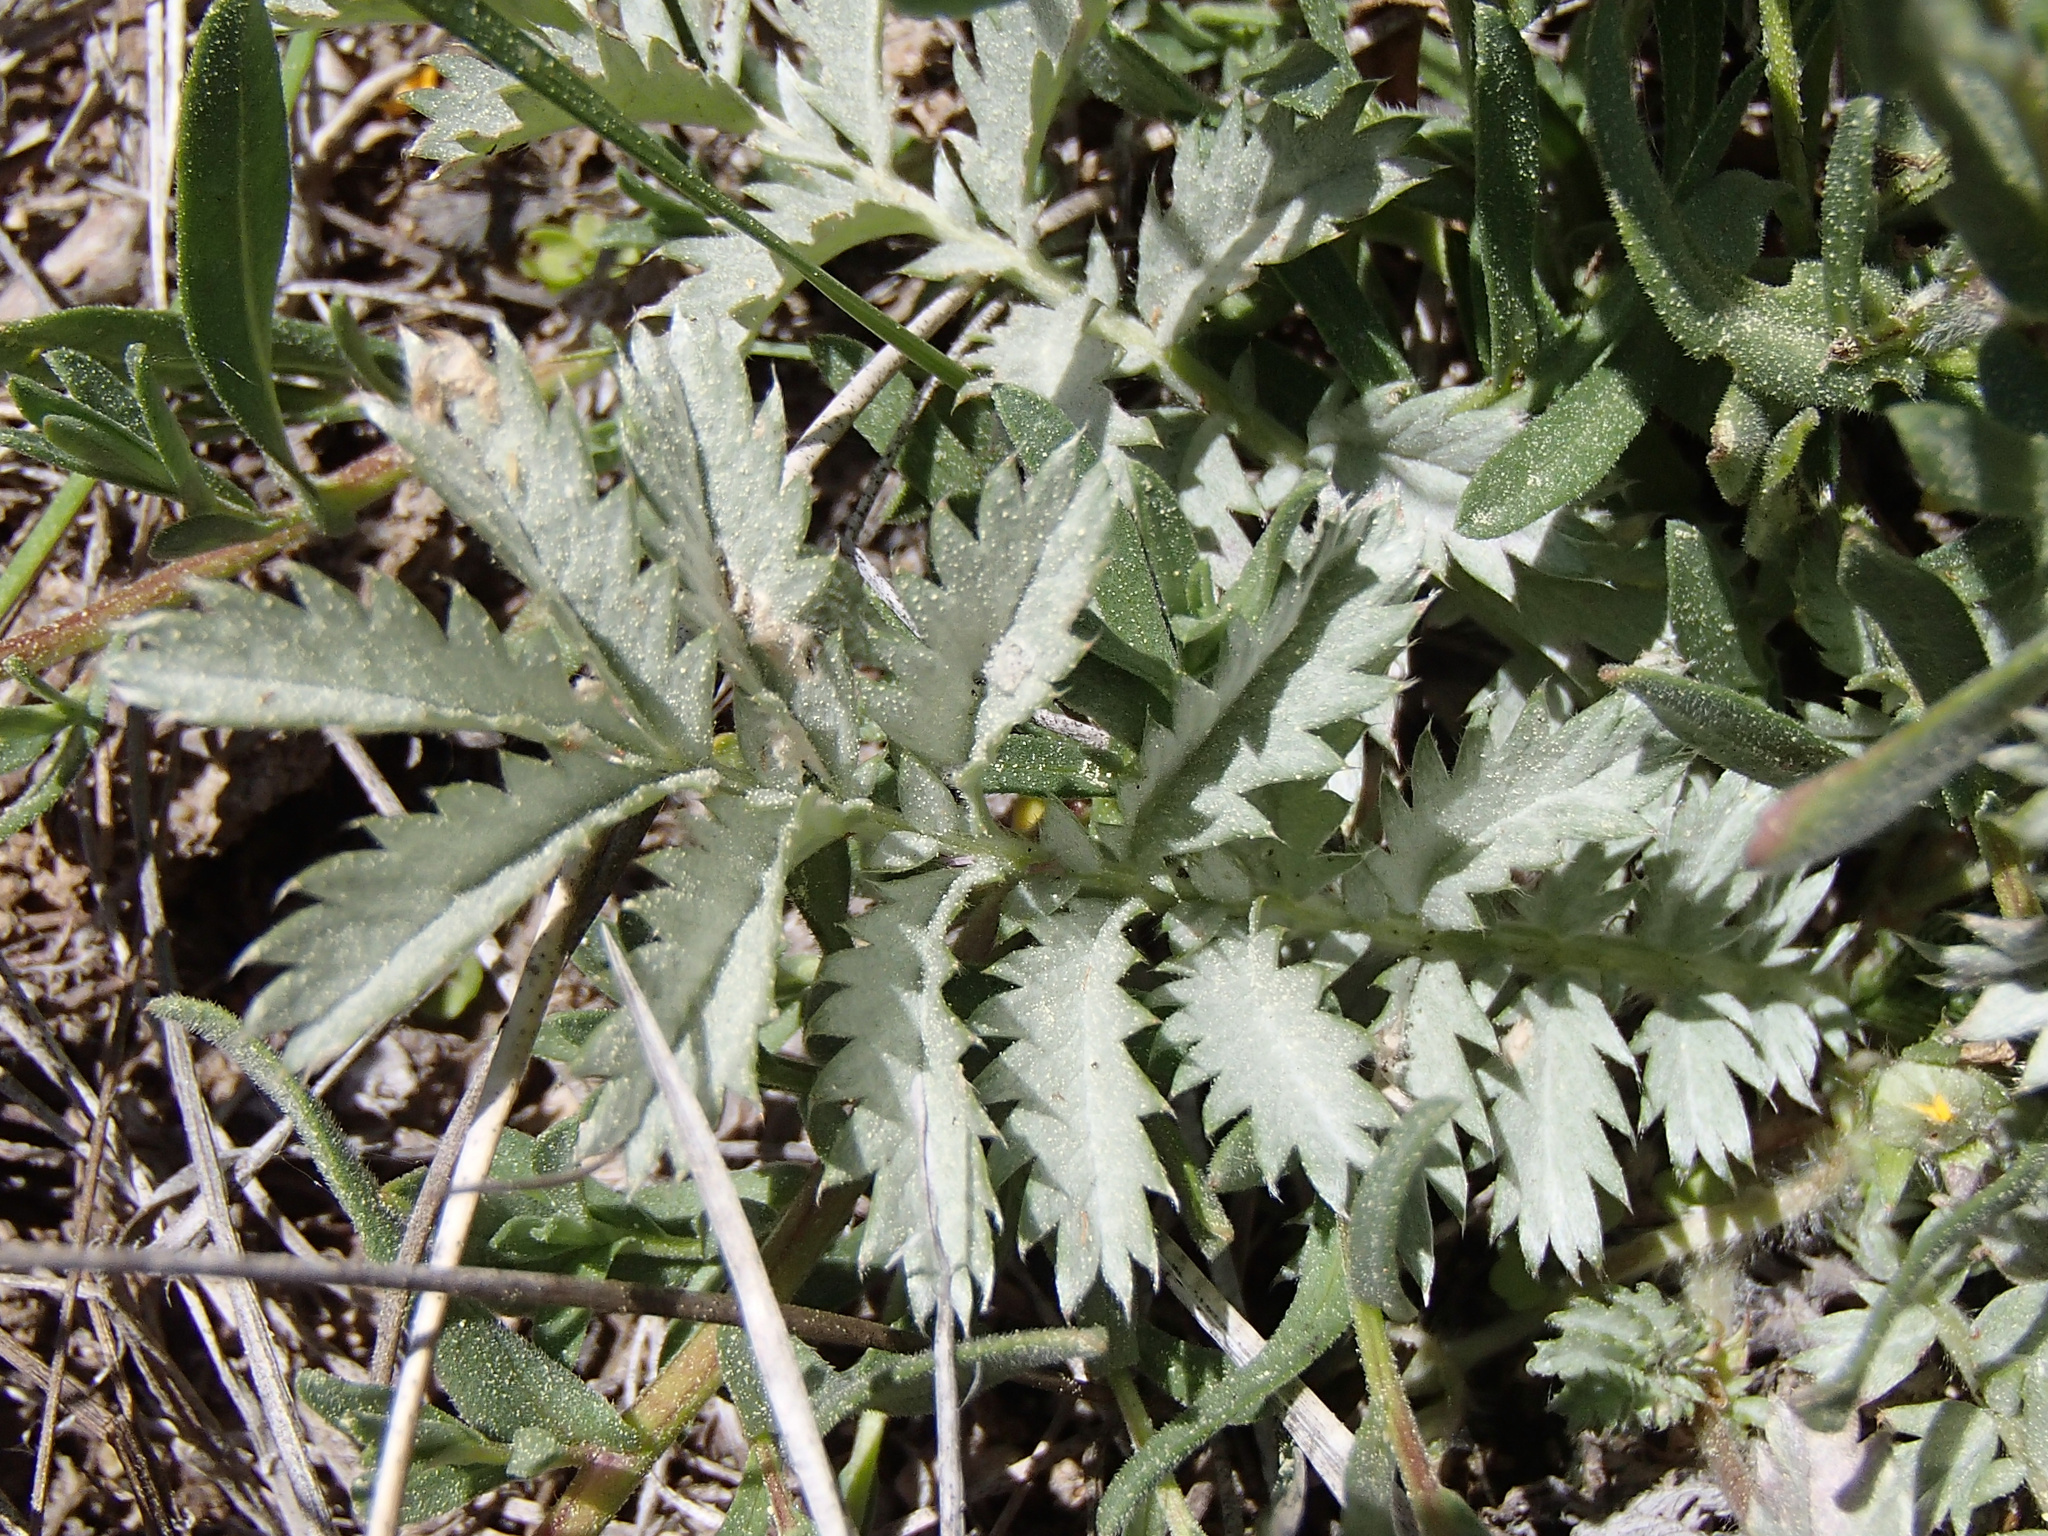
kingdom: Plantae
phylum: Tracheophyta
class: Magnoliopsida
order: Rosales
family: Rosaceae
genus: Argentina
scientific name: Argentina anserina
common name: Common silverweed
